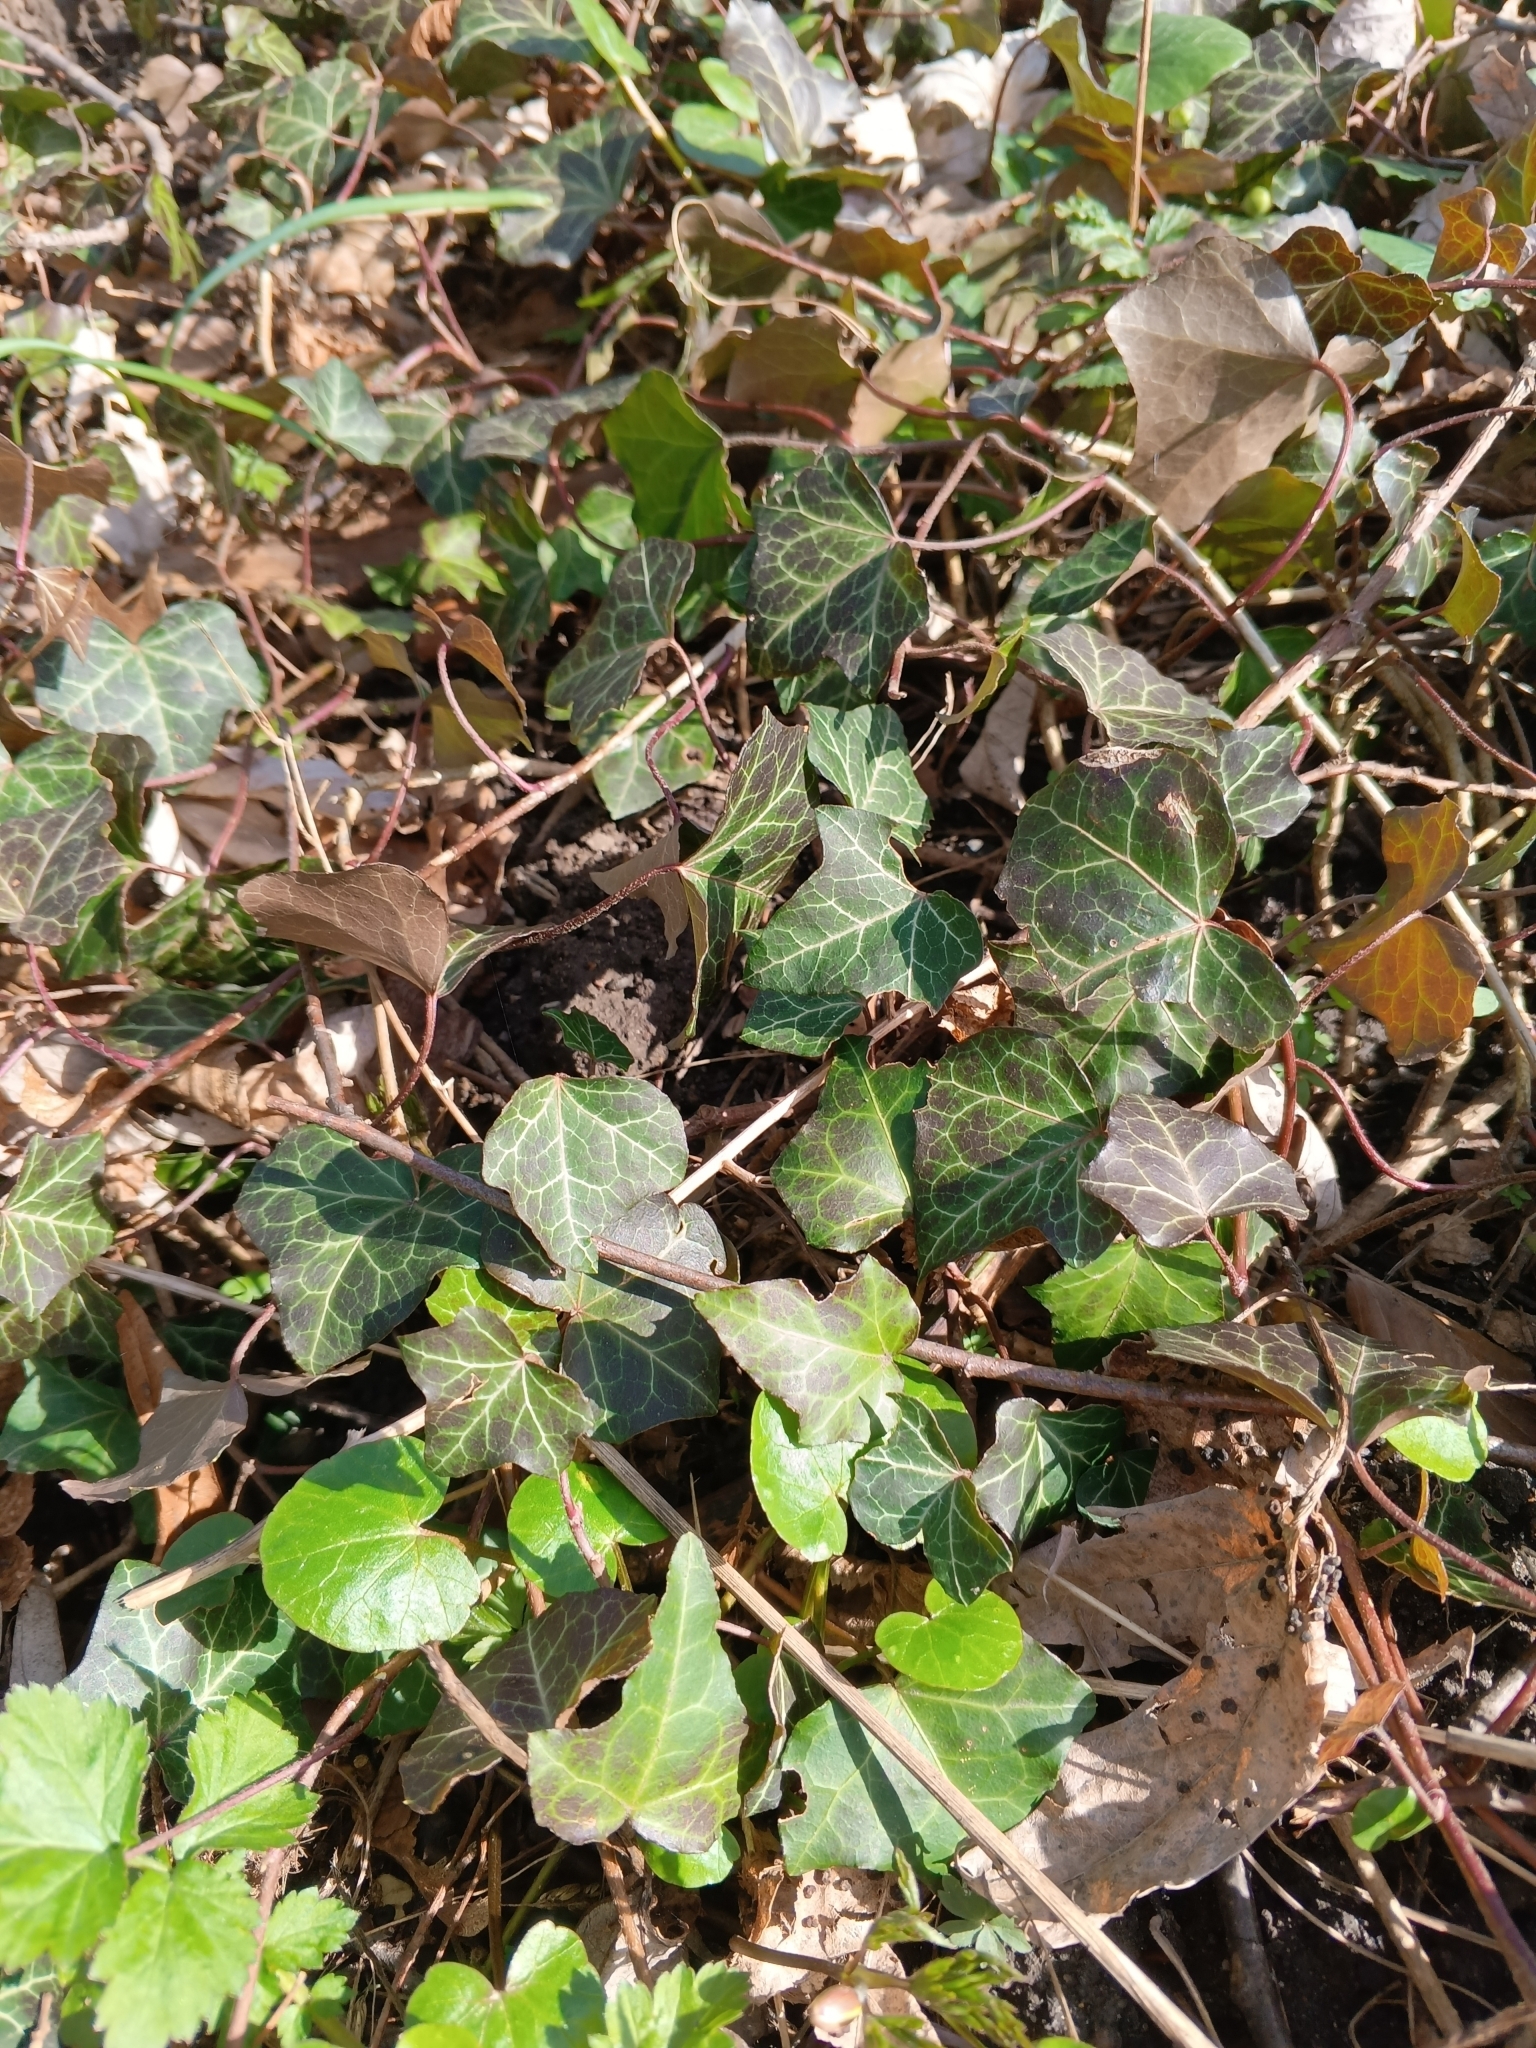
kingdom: Plantae
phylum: Tracheophyta
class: Magnoliopsida
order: Apiales
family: Araliaceae
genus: Hedera
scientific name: Hedera helix
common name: Ivy
